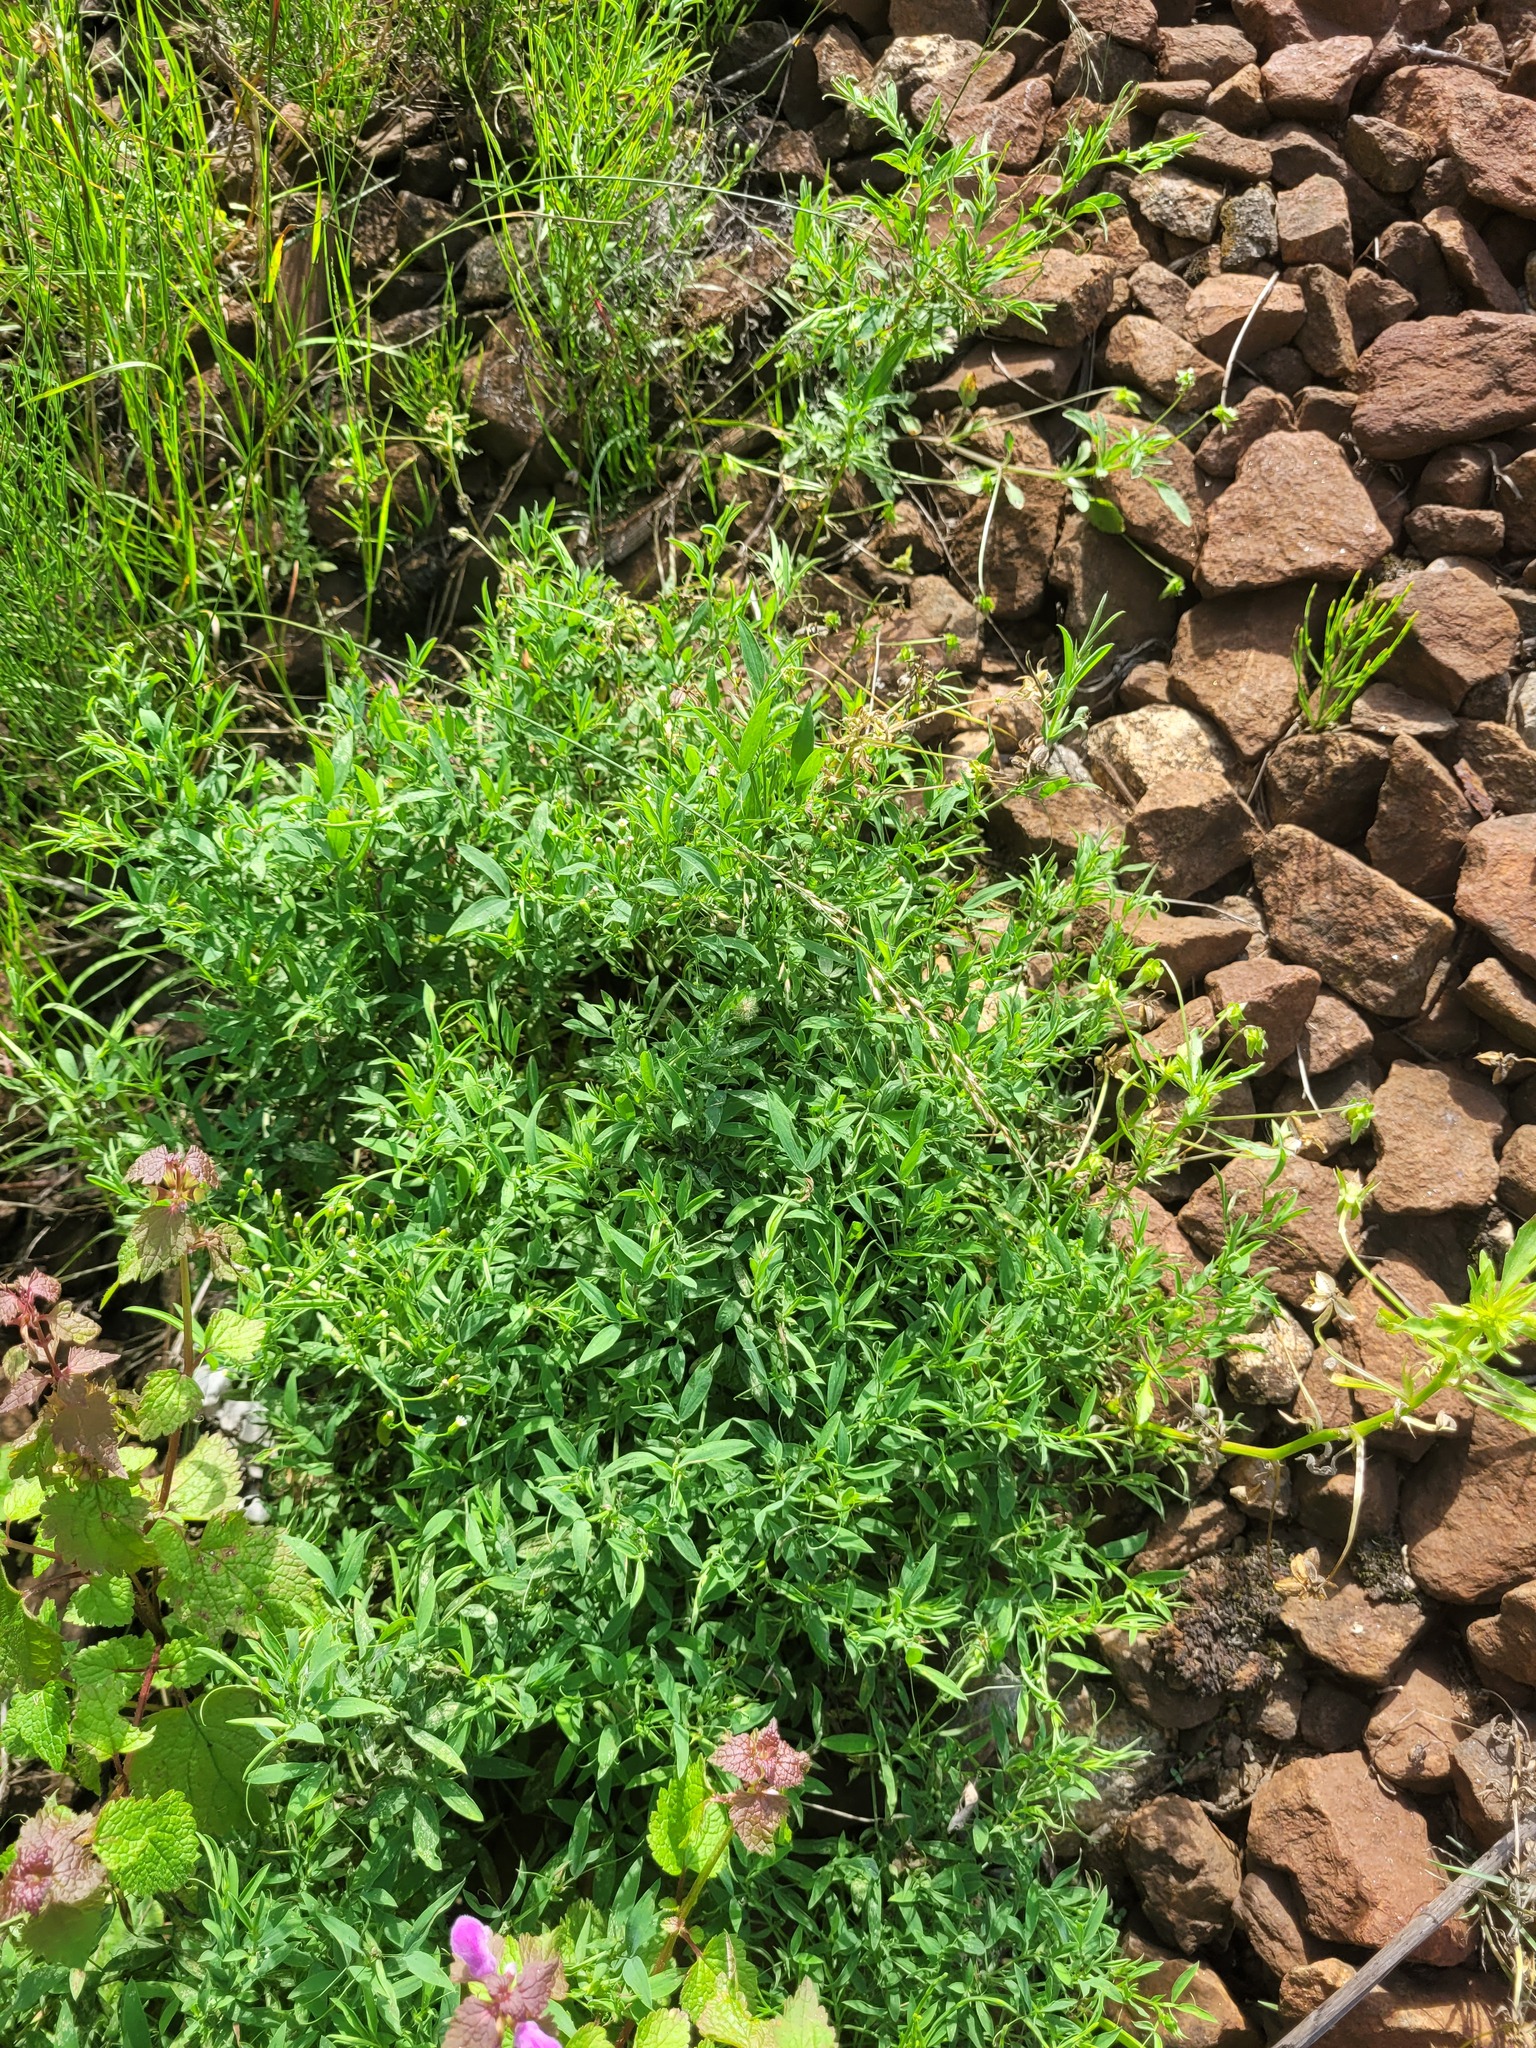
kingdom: Plantae
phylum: Tracheophyta
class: Magnoliopsida
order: Fabales
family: Fabaceae
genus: Lathyrus
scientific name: Lathyrus pratensis
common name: Meadow vetchling
